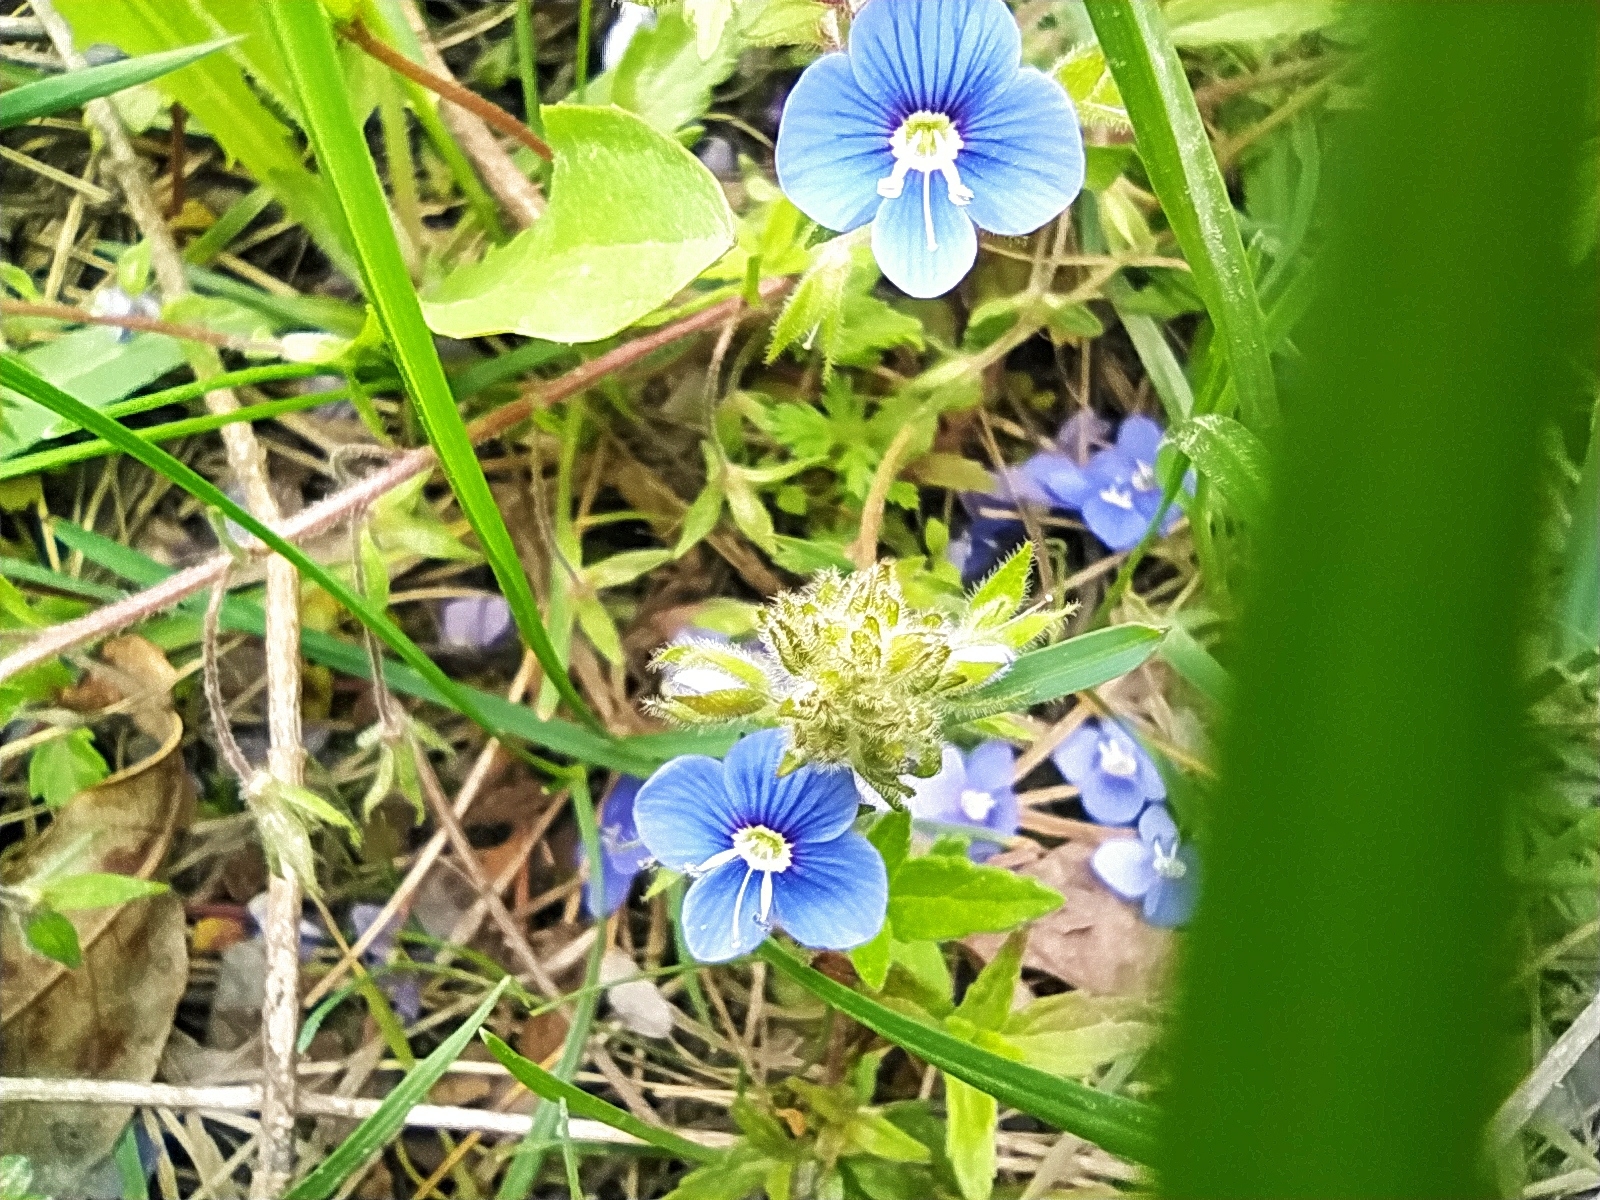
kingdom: Plantae
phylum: Tracheophyta
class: Magnoliopsida
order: Lamiales
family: Plantaginaceae
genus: Veronica
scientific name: Veronica
